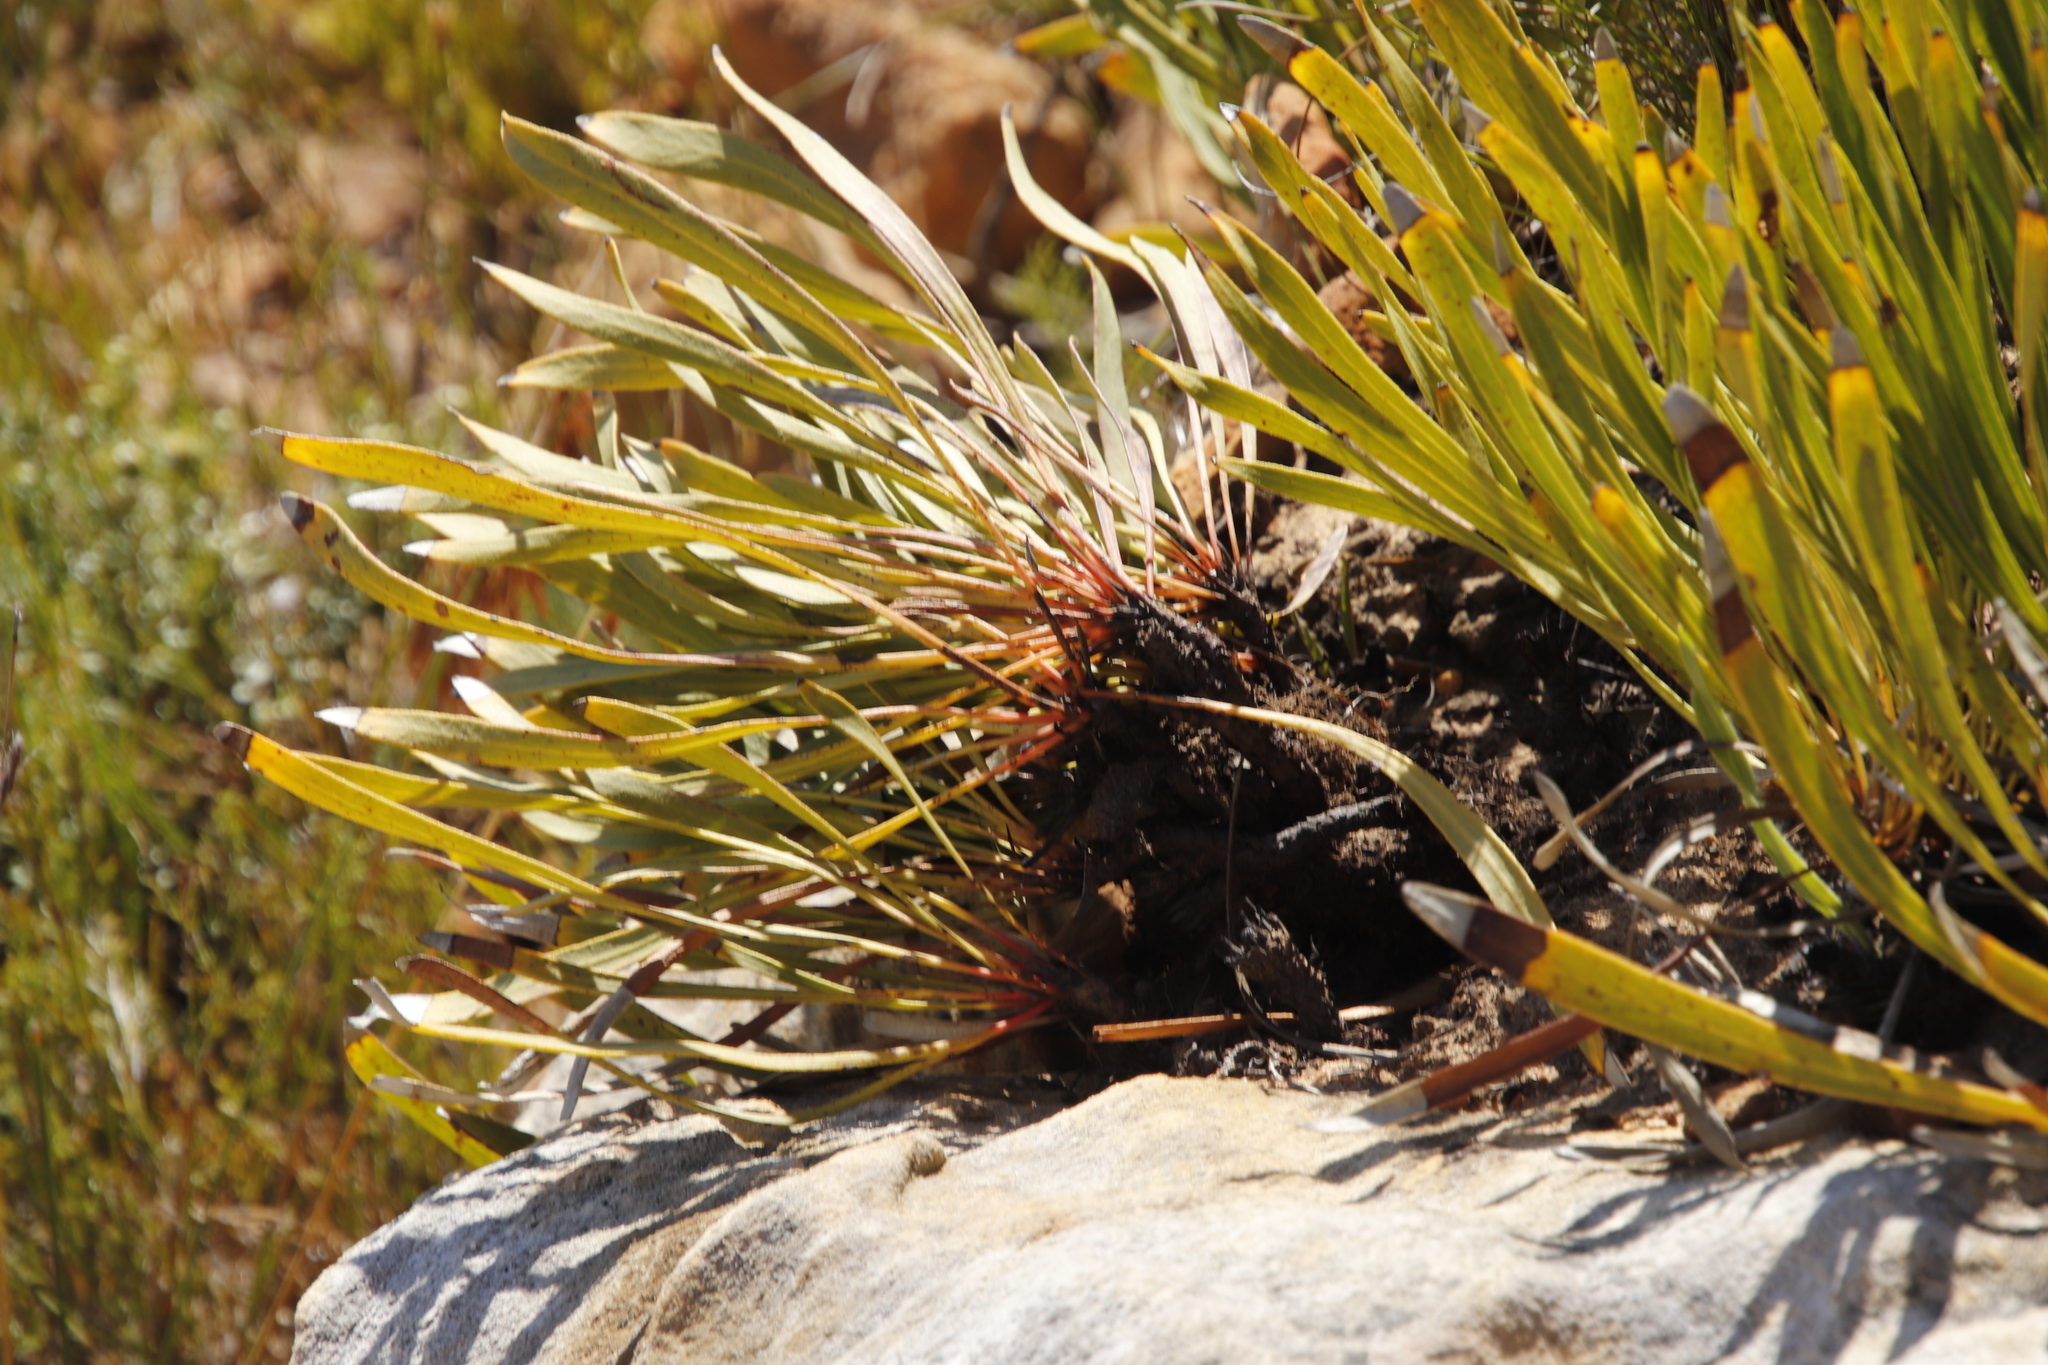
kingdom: Plantae
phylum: Tracheophyta
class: Magnoliopsida
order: Proteales
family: Proteaceae
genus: Protea
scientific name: Protea scabra
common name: Sandpaper-leaf sugarbush
